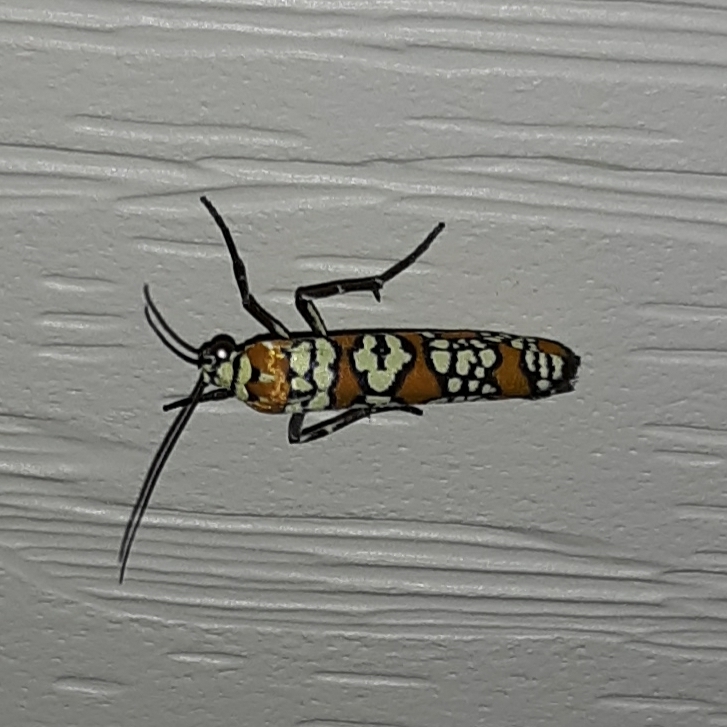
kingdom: Animalia
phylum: Arthropoda
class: Insecta
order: Lepidoptera
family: Attevidae
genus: Atteva
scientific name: Atteva punctella
